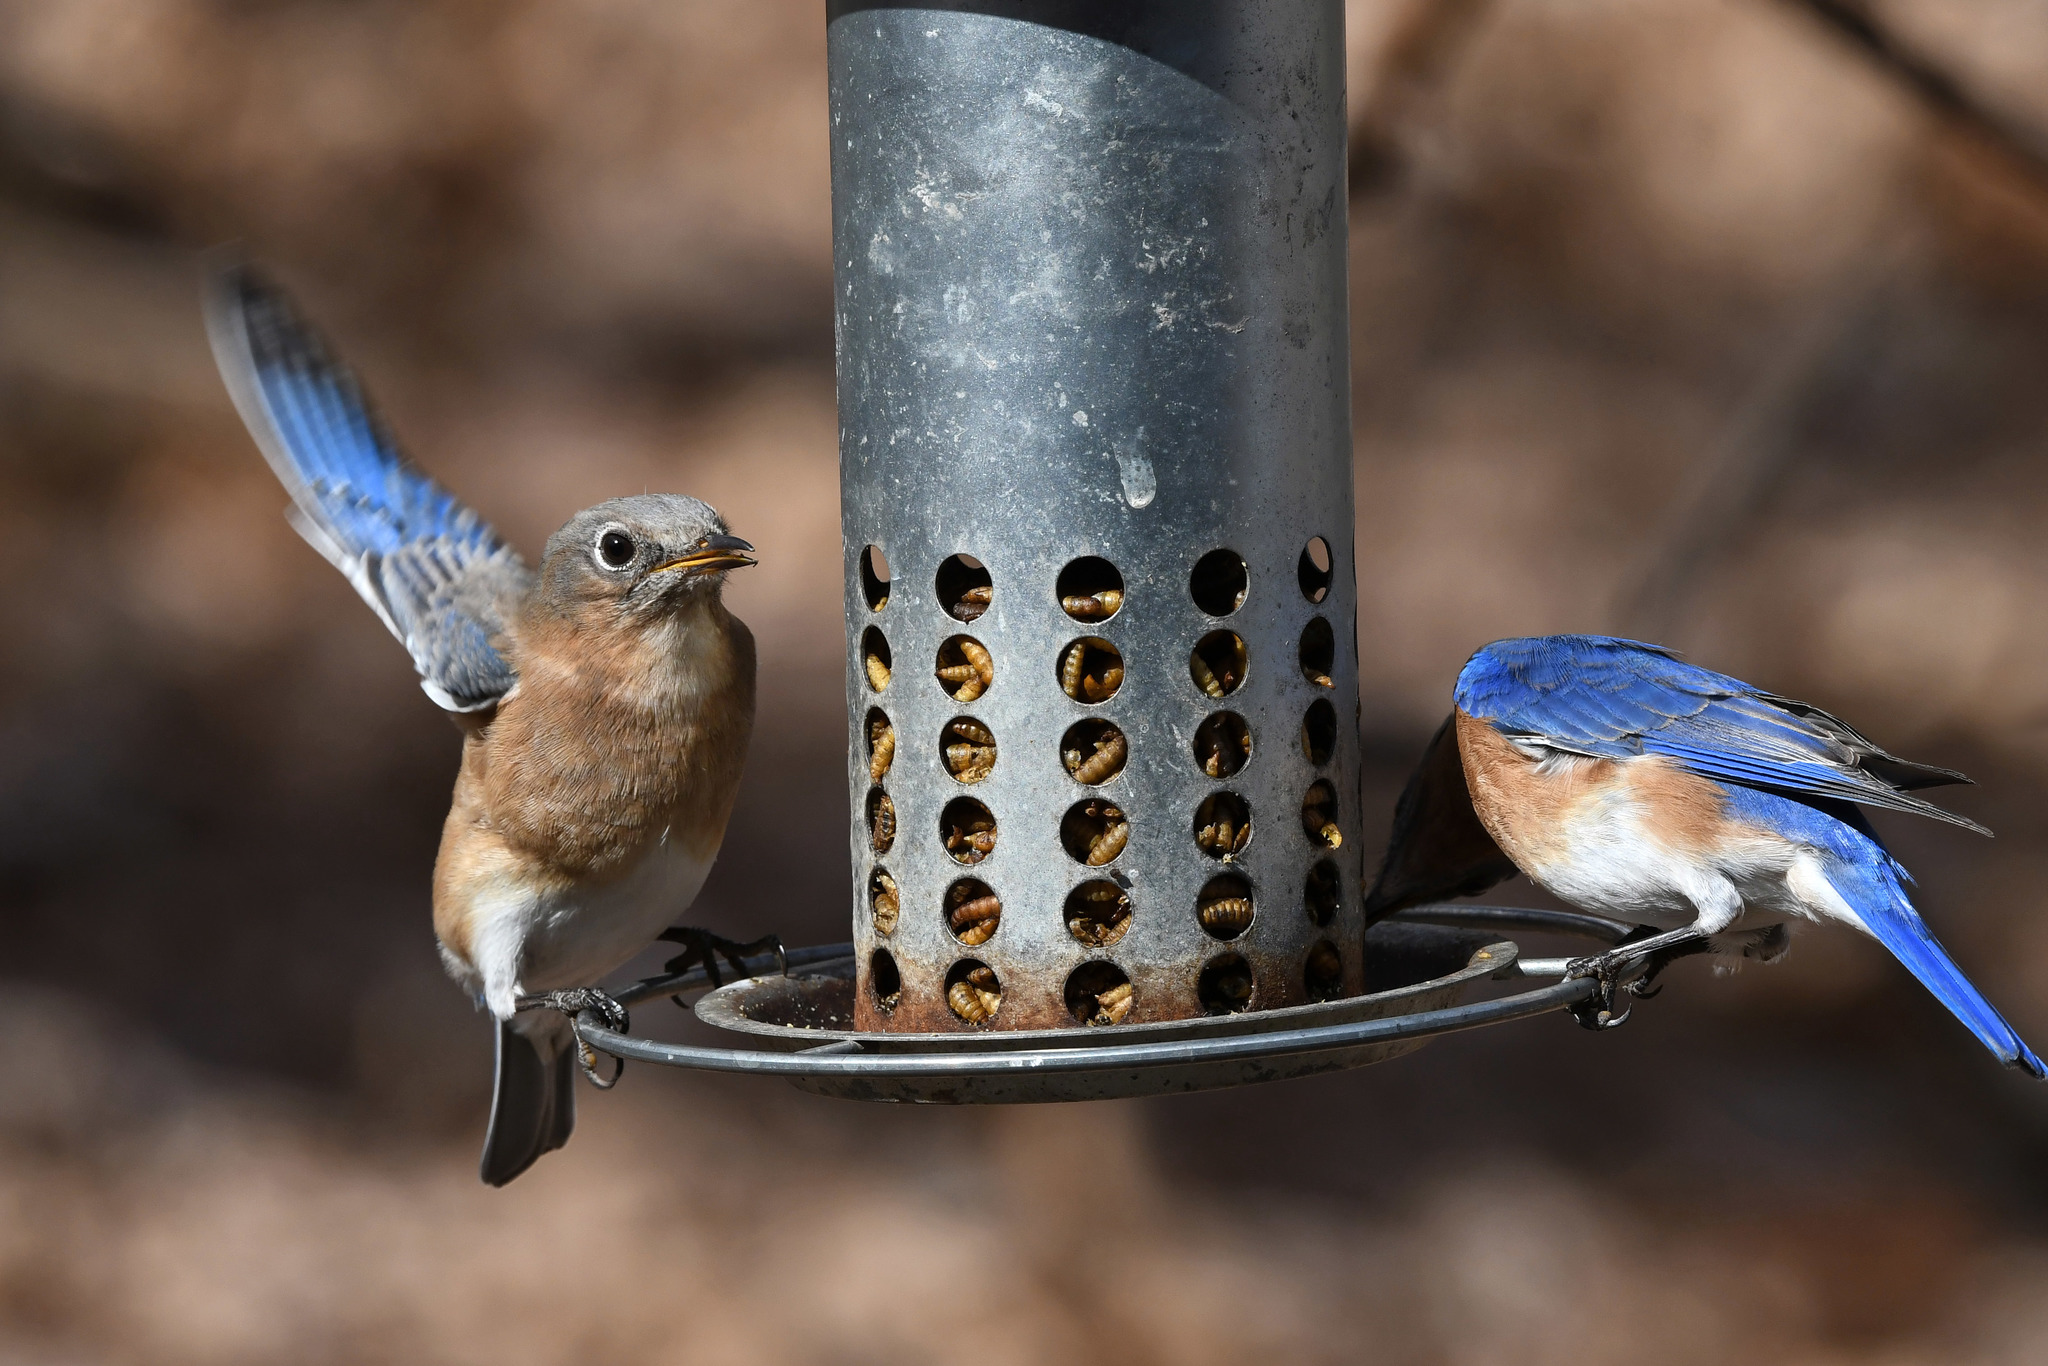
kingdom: Animalia
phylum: Chordata
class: Aves
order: Passeriformes
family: Turdidae
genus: Sialia
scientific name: Sialia sialis
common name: Eastern bluebird
